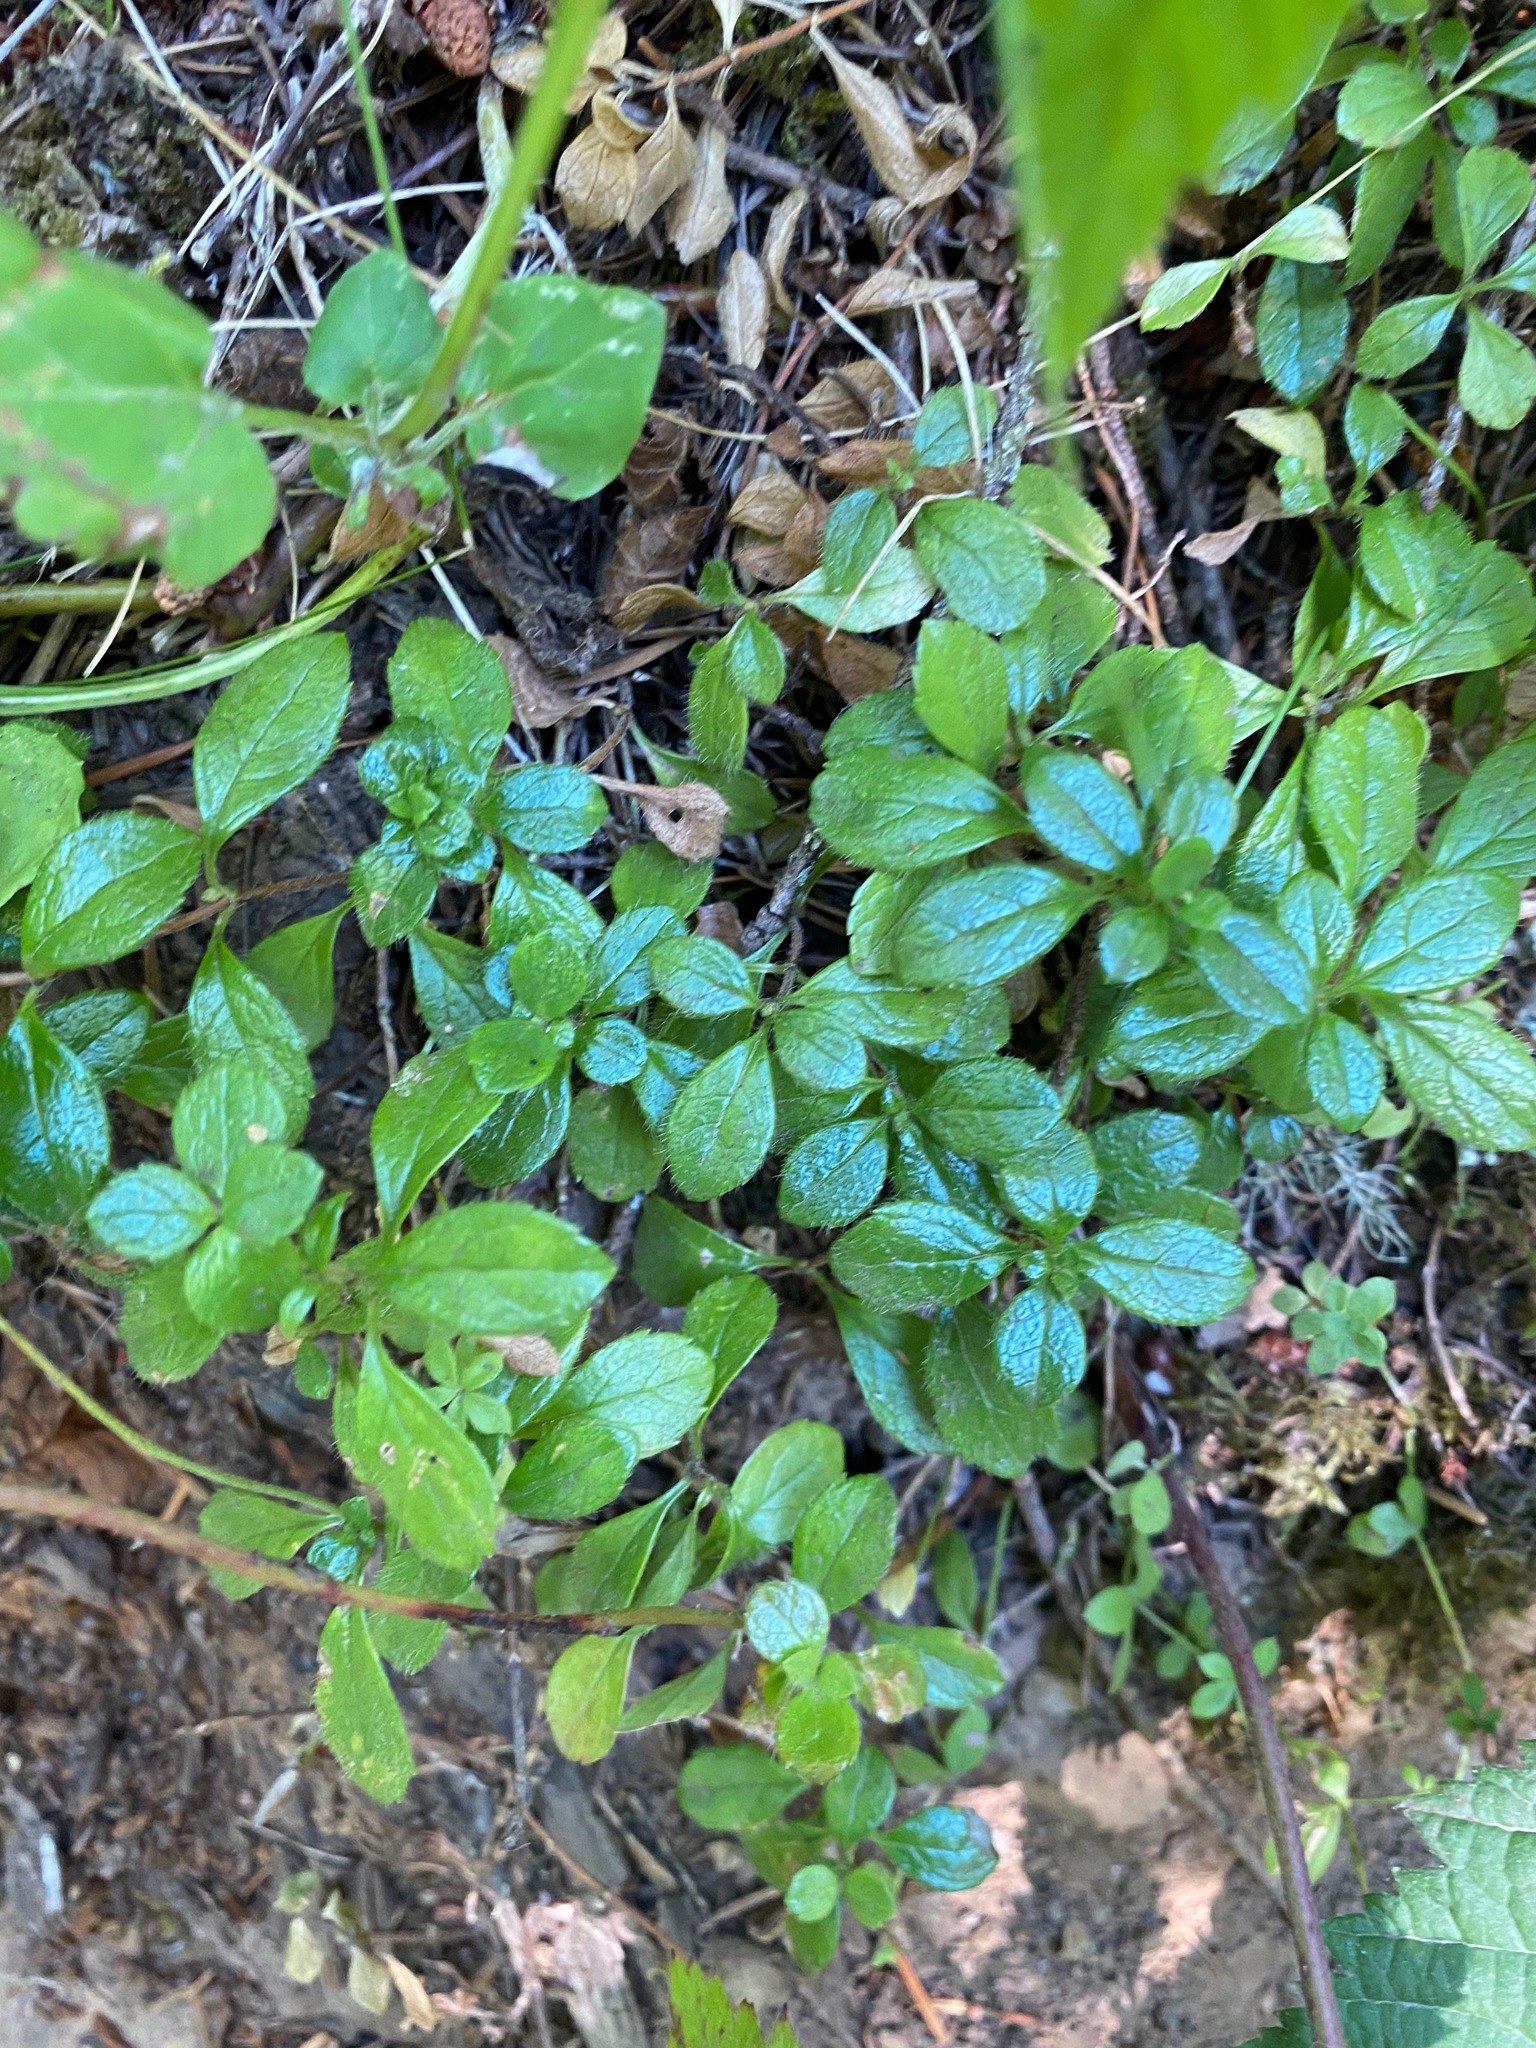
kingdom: Plantae
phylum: Tracheophyta
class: Magnoliopsida
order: Dipsacales
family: Caprifoliaceae
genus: Linnaea
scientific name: Linnaea borealis
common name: Twinflower
